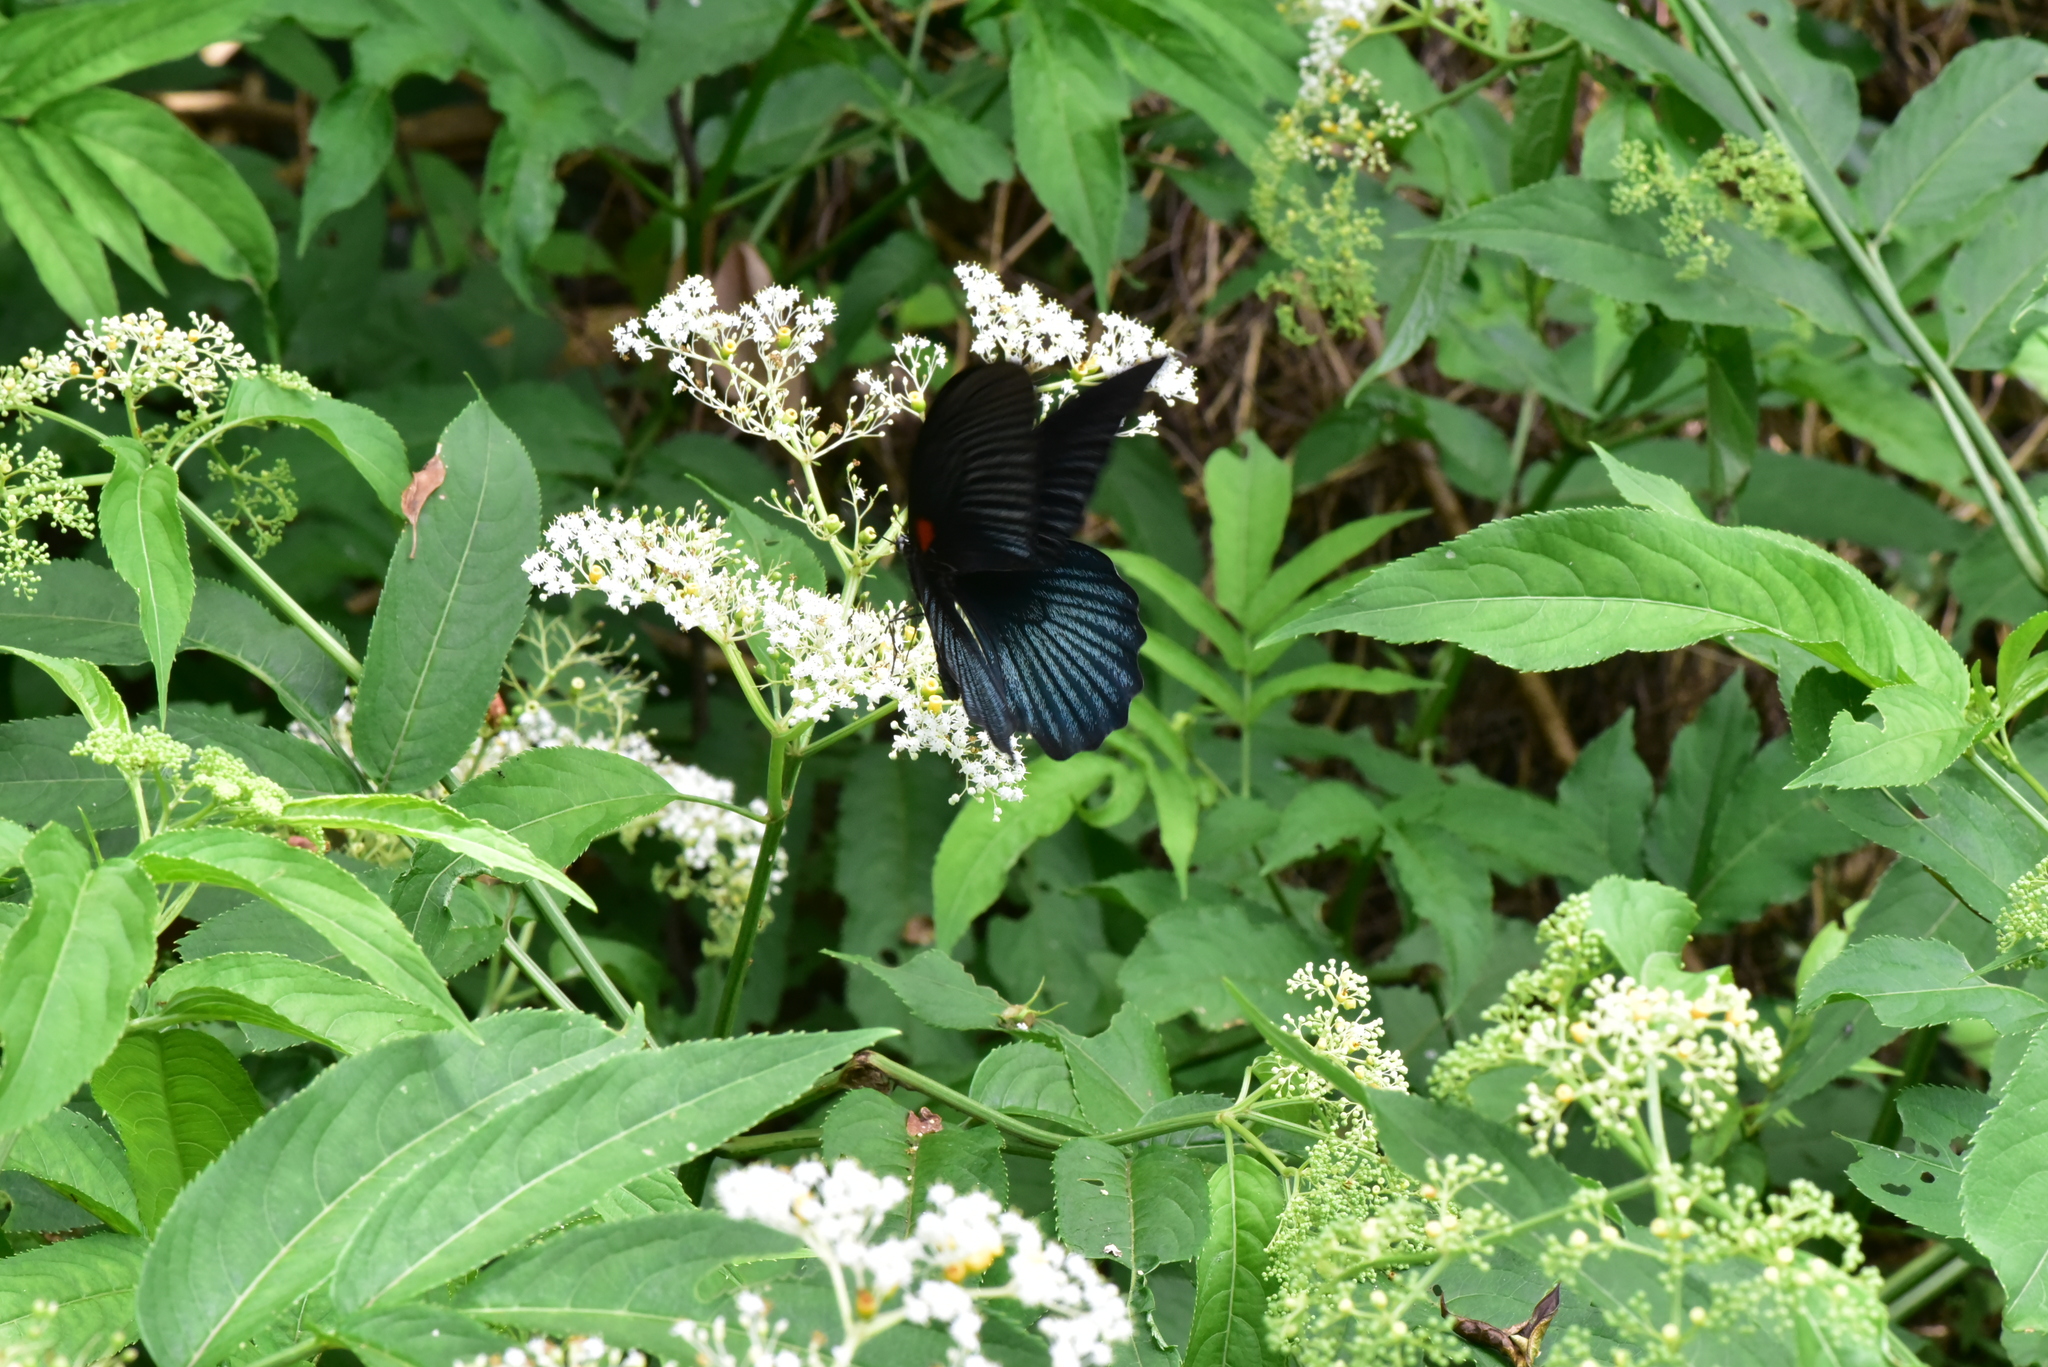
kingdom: Animalia
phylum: Arthropoda
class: Insecta
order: Lepidoptera
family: Papilionidae
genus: Papilio
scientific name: Papilio memnon
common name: Great mormon
